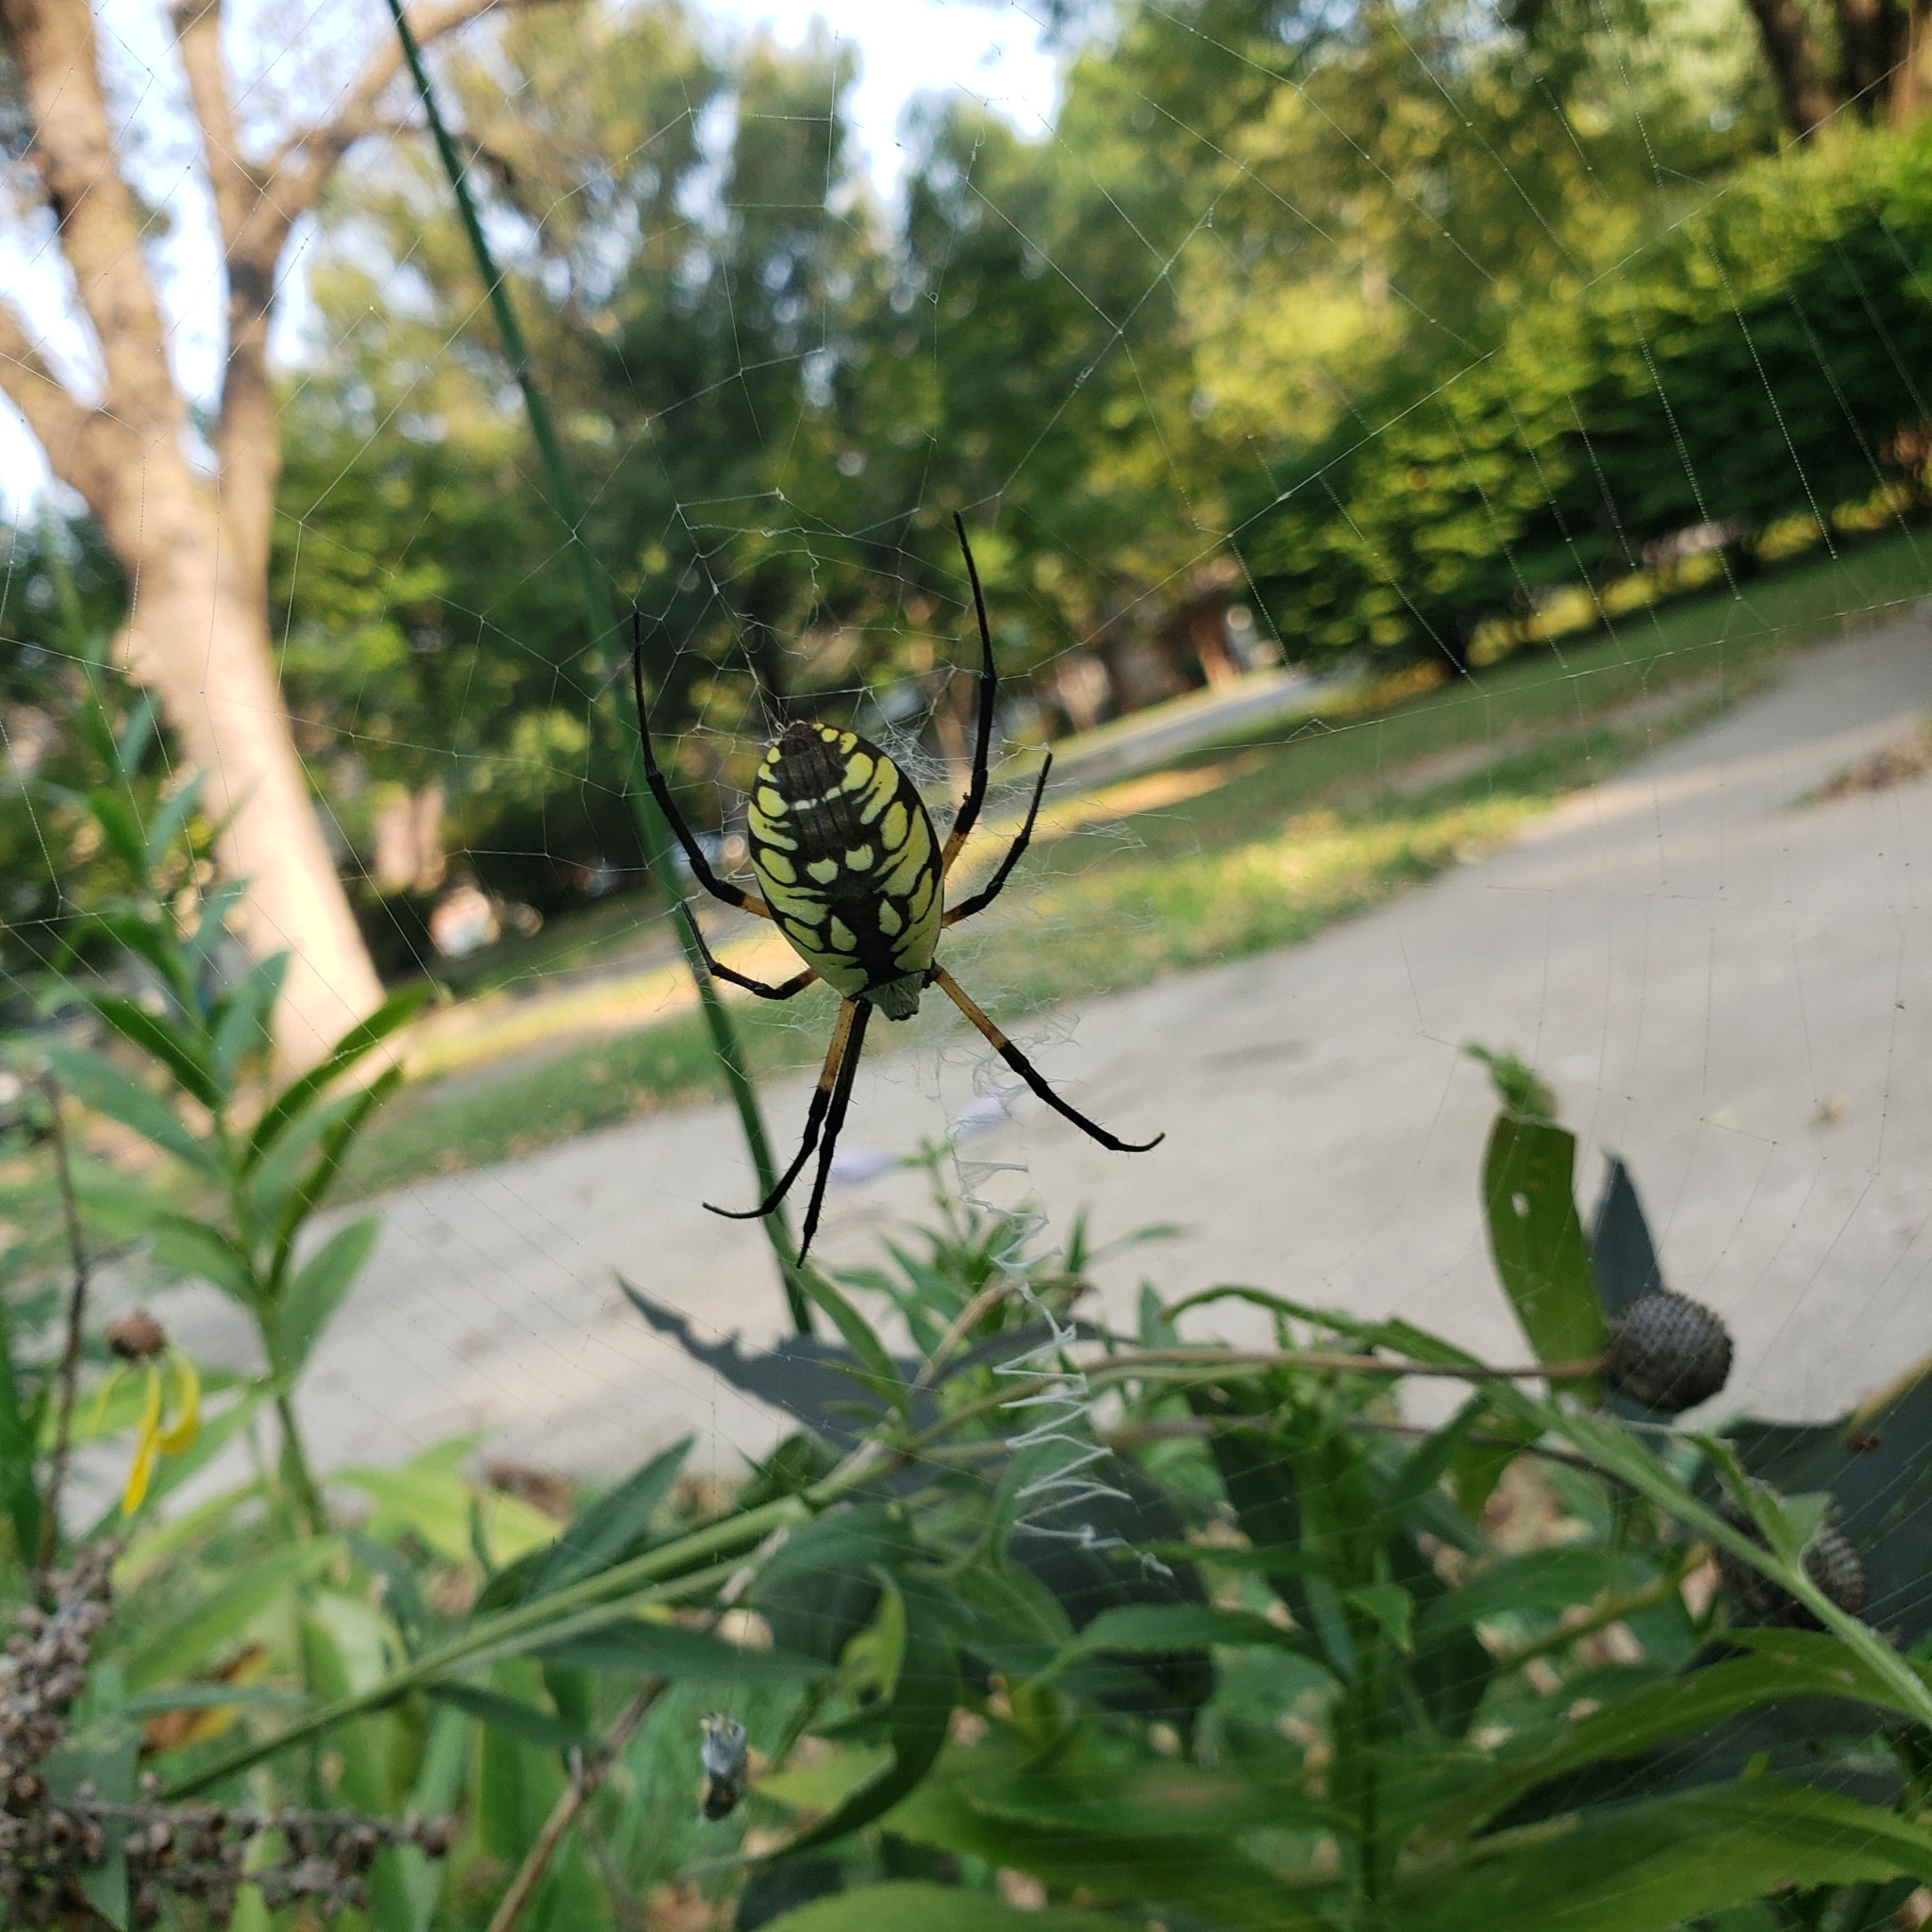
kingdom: Animalia
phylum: Arthropoda
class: Arachnida
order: Araneae
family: Araneidae
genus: Argiope
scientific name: Argiope aurantia
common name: Orb weavers
